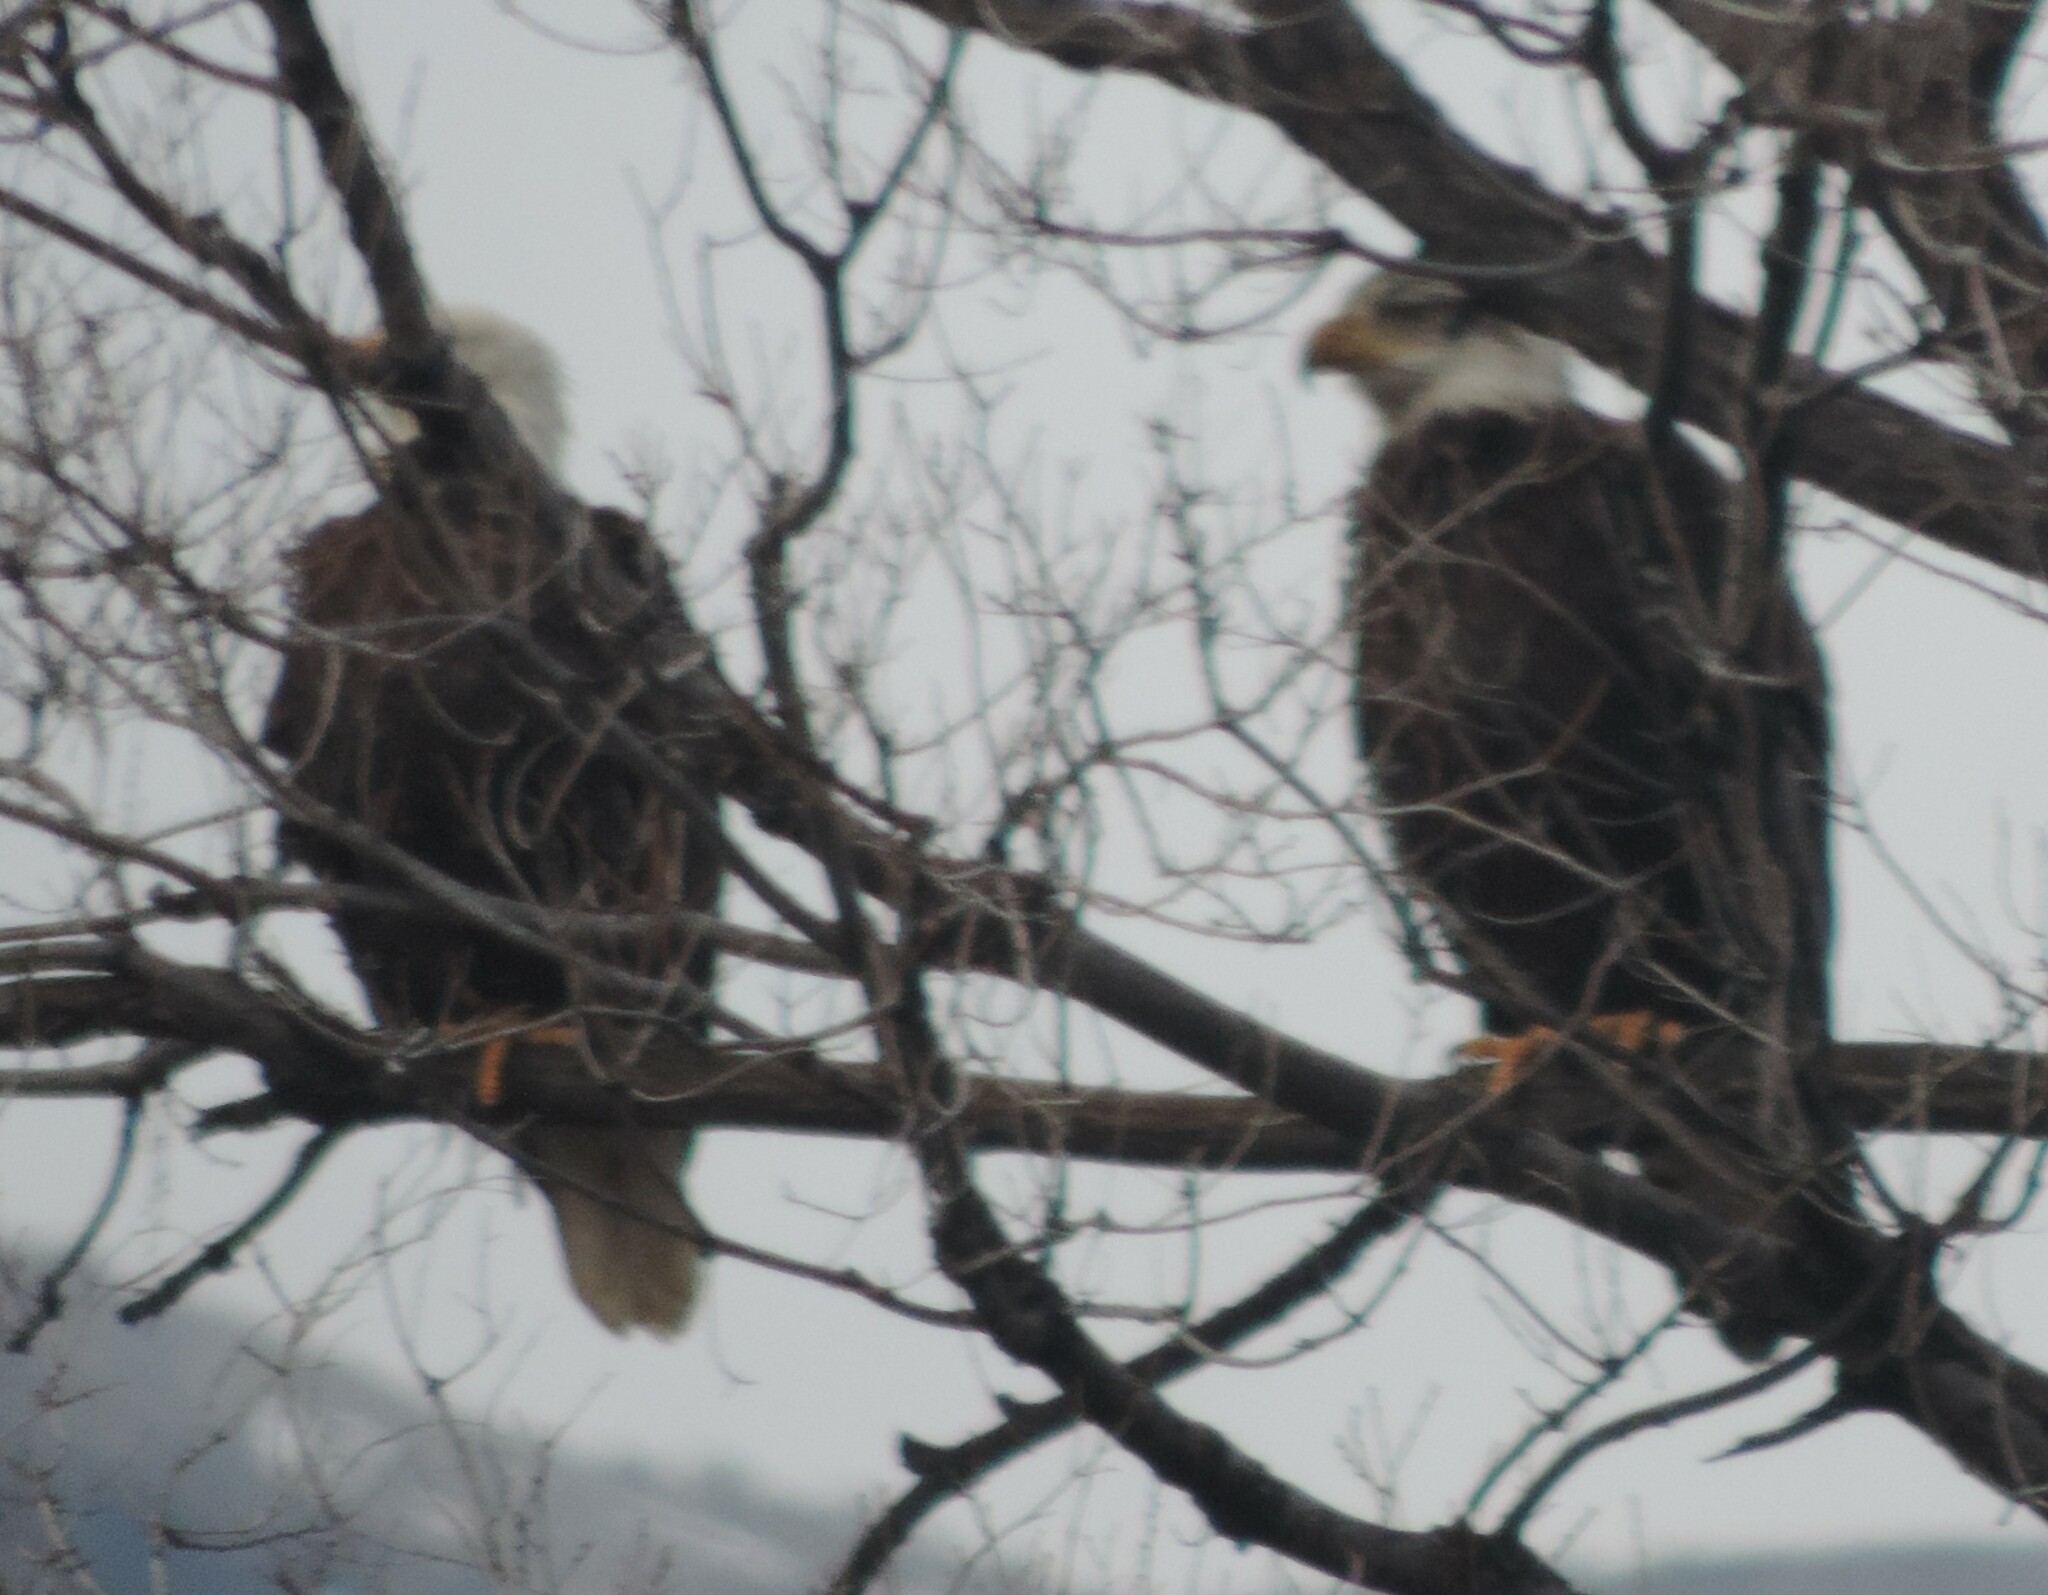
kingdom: Animalia
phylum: Chordata
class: Aves
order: Accipitriformes
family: Accipitridae
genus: Haliaeetus
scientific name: Haliaeetus leucocephalus
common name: Bald eagle
